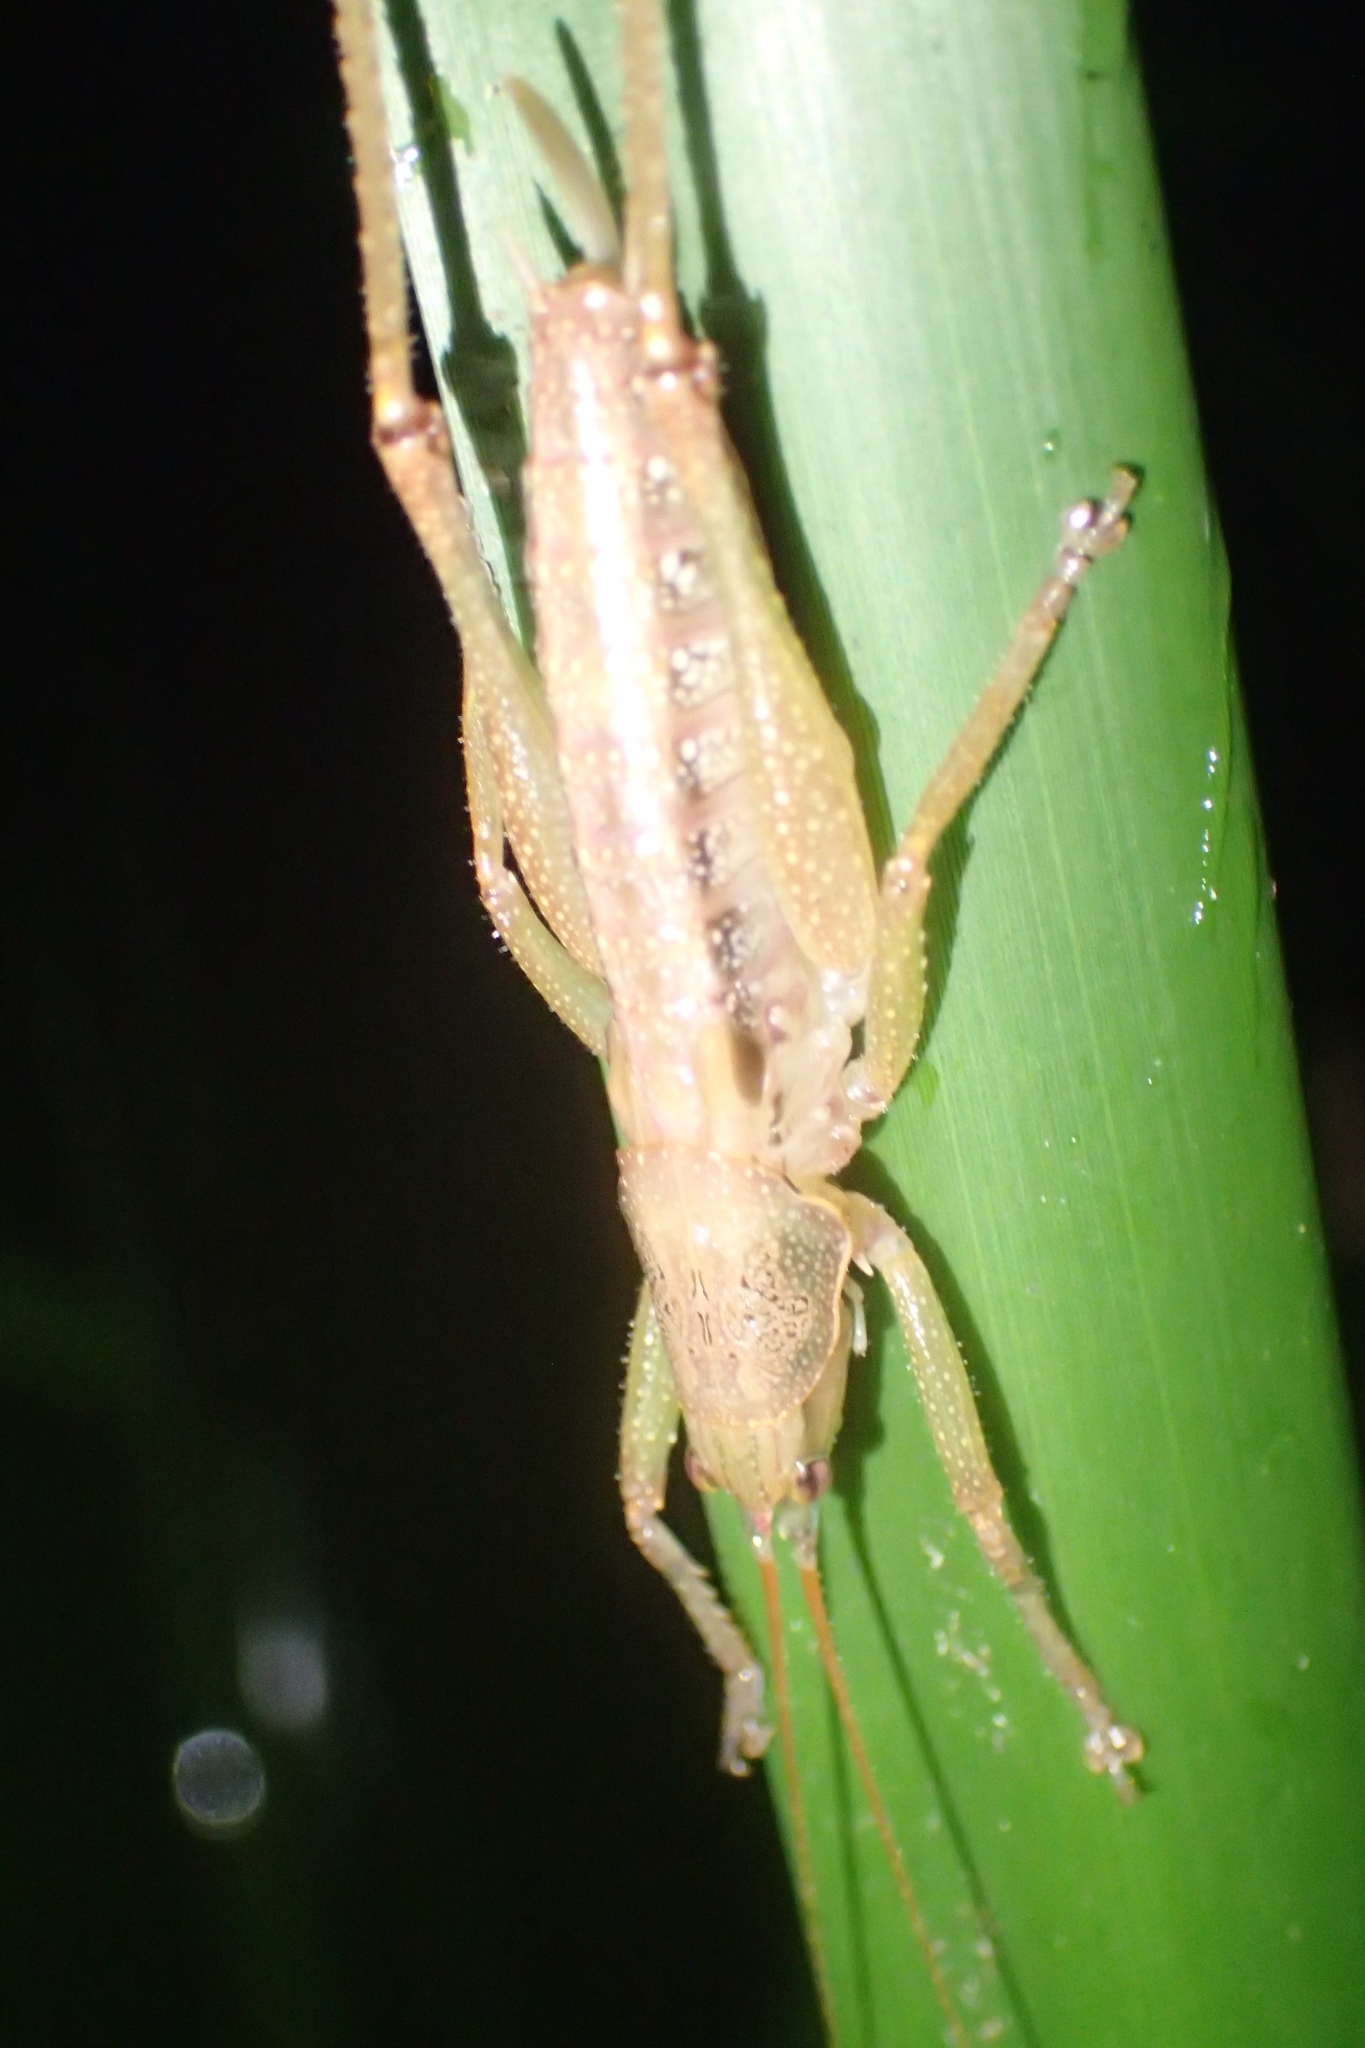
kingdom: Animalia
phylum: Arthropoda
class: Insecta
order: Orthoptera
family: Tettigoniidae
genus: Austrosalomona
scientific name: Austrosalomona falcata
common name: Olive-green coastal katydid
